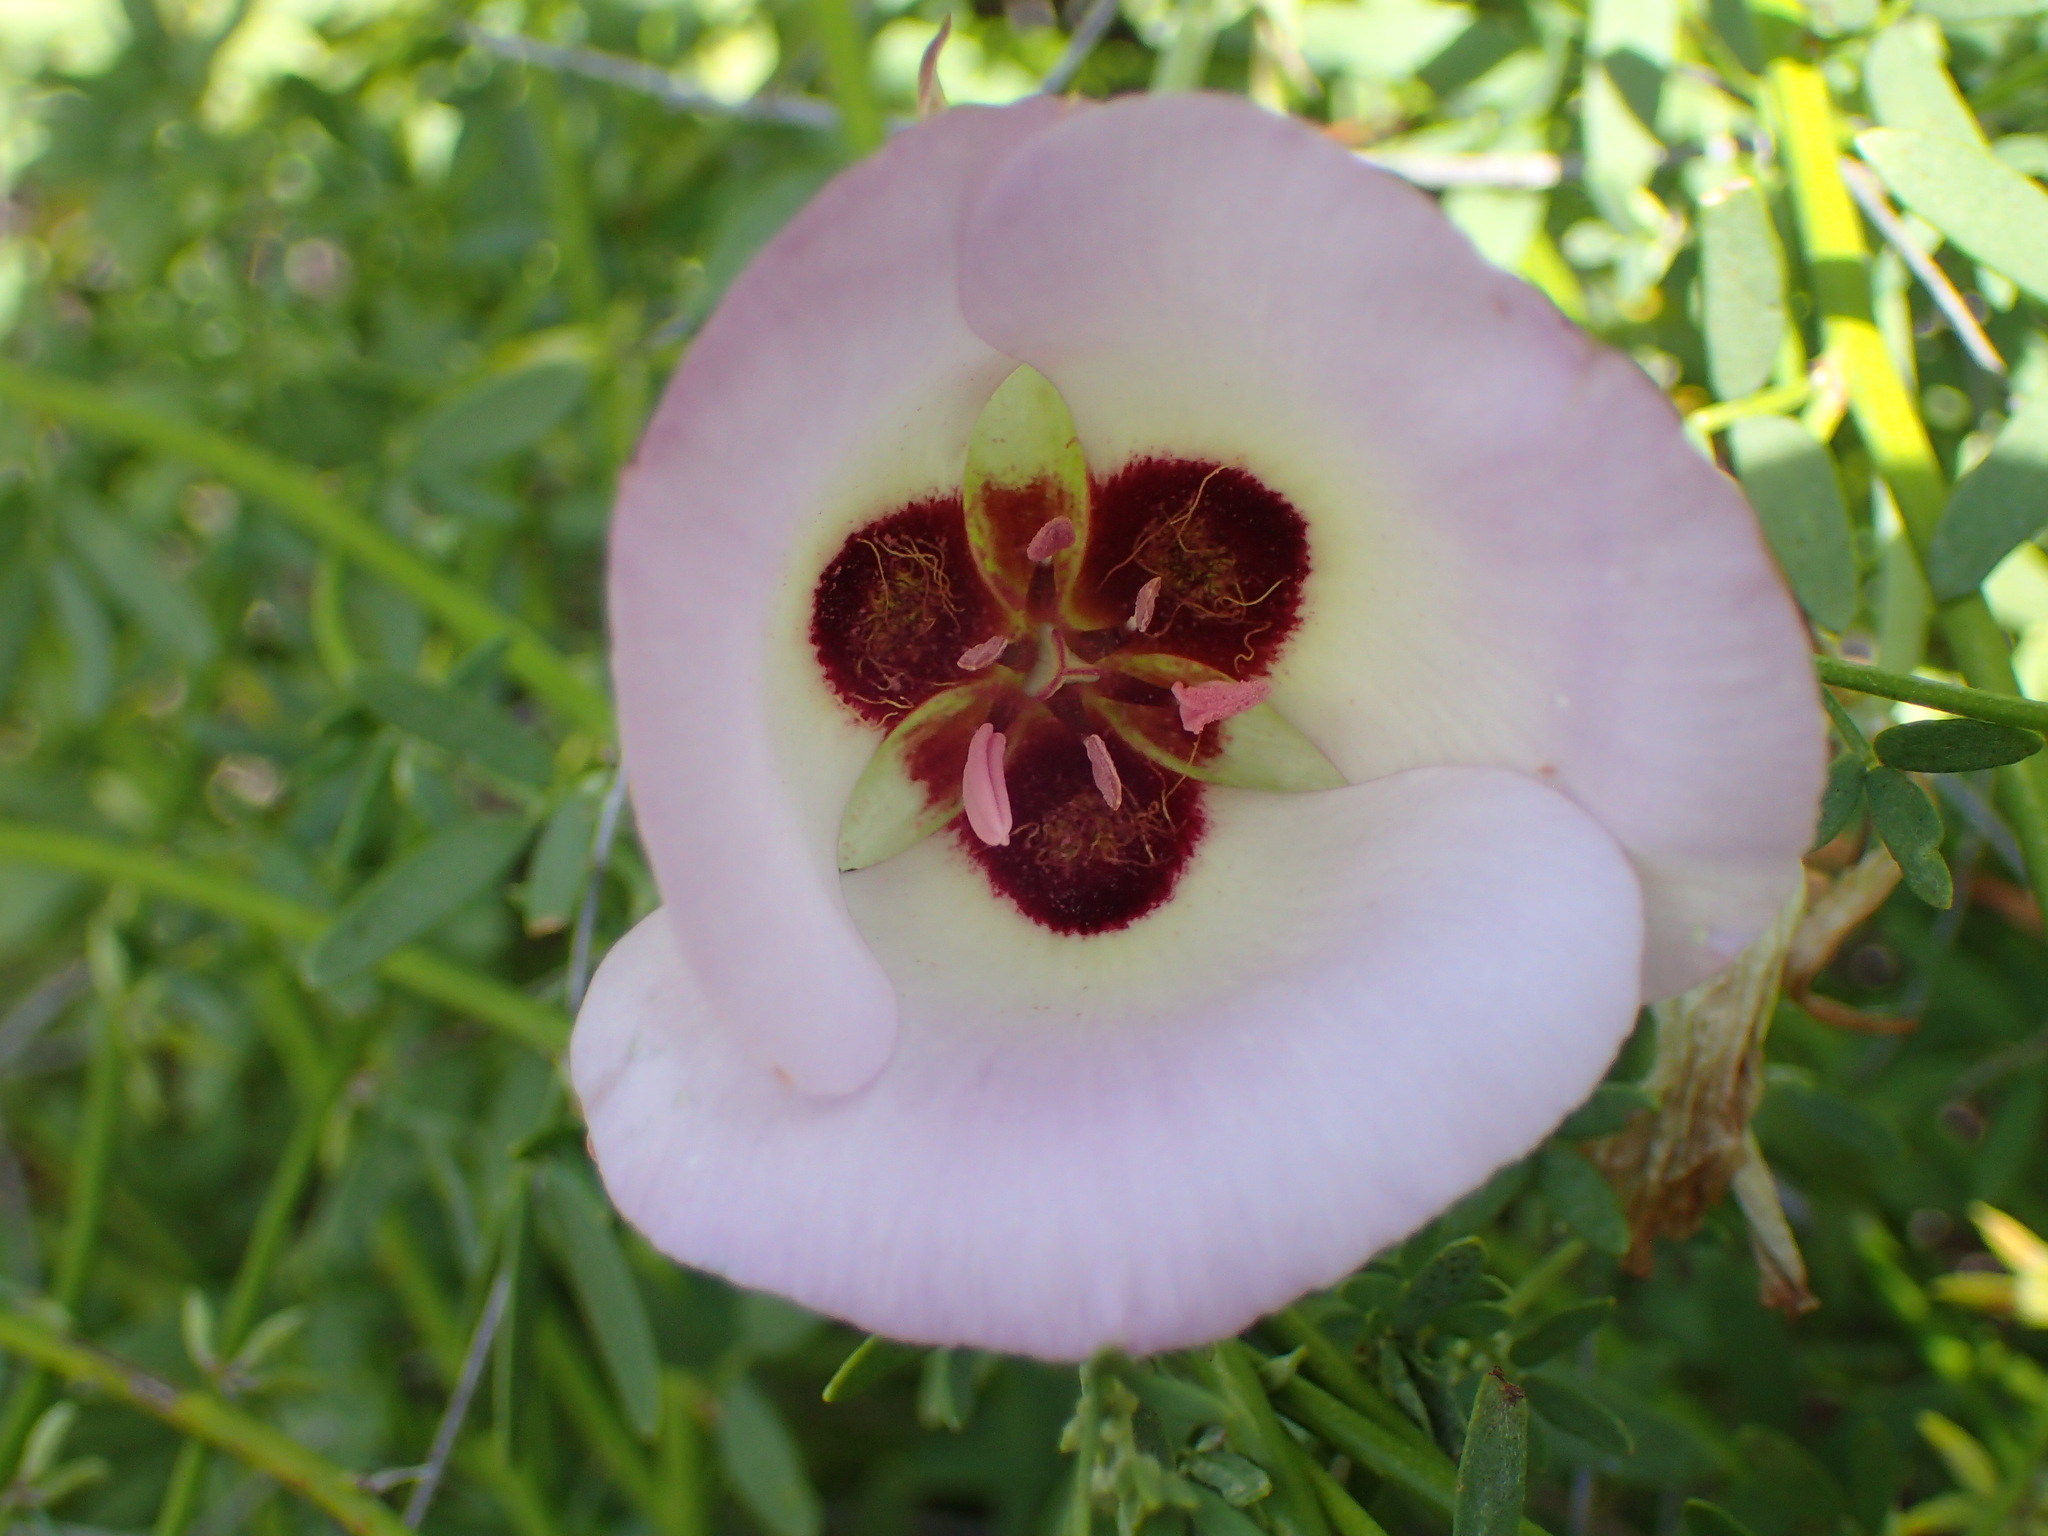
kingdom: Plantae
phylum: Tracheophyta
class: Liliopsida
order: Liliales
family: Liliaceae
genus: Calochortus
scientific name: Calochortus catalinae
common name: Catalina mariposa-lily
